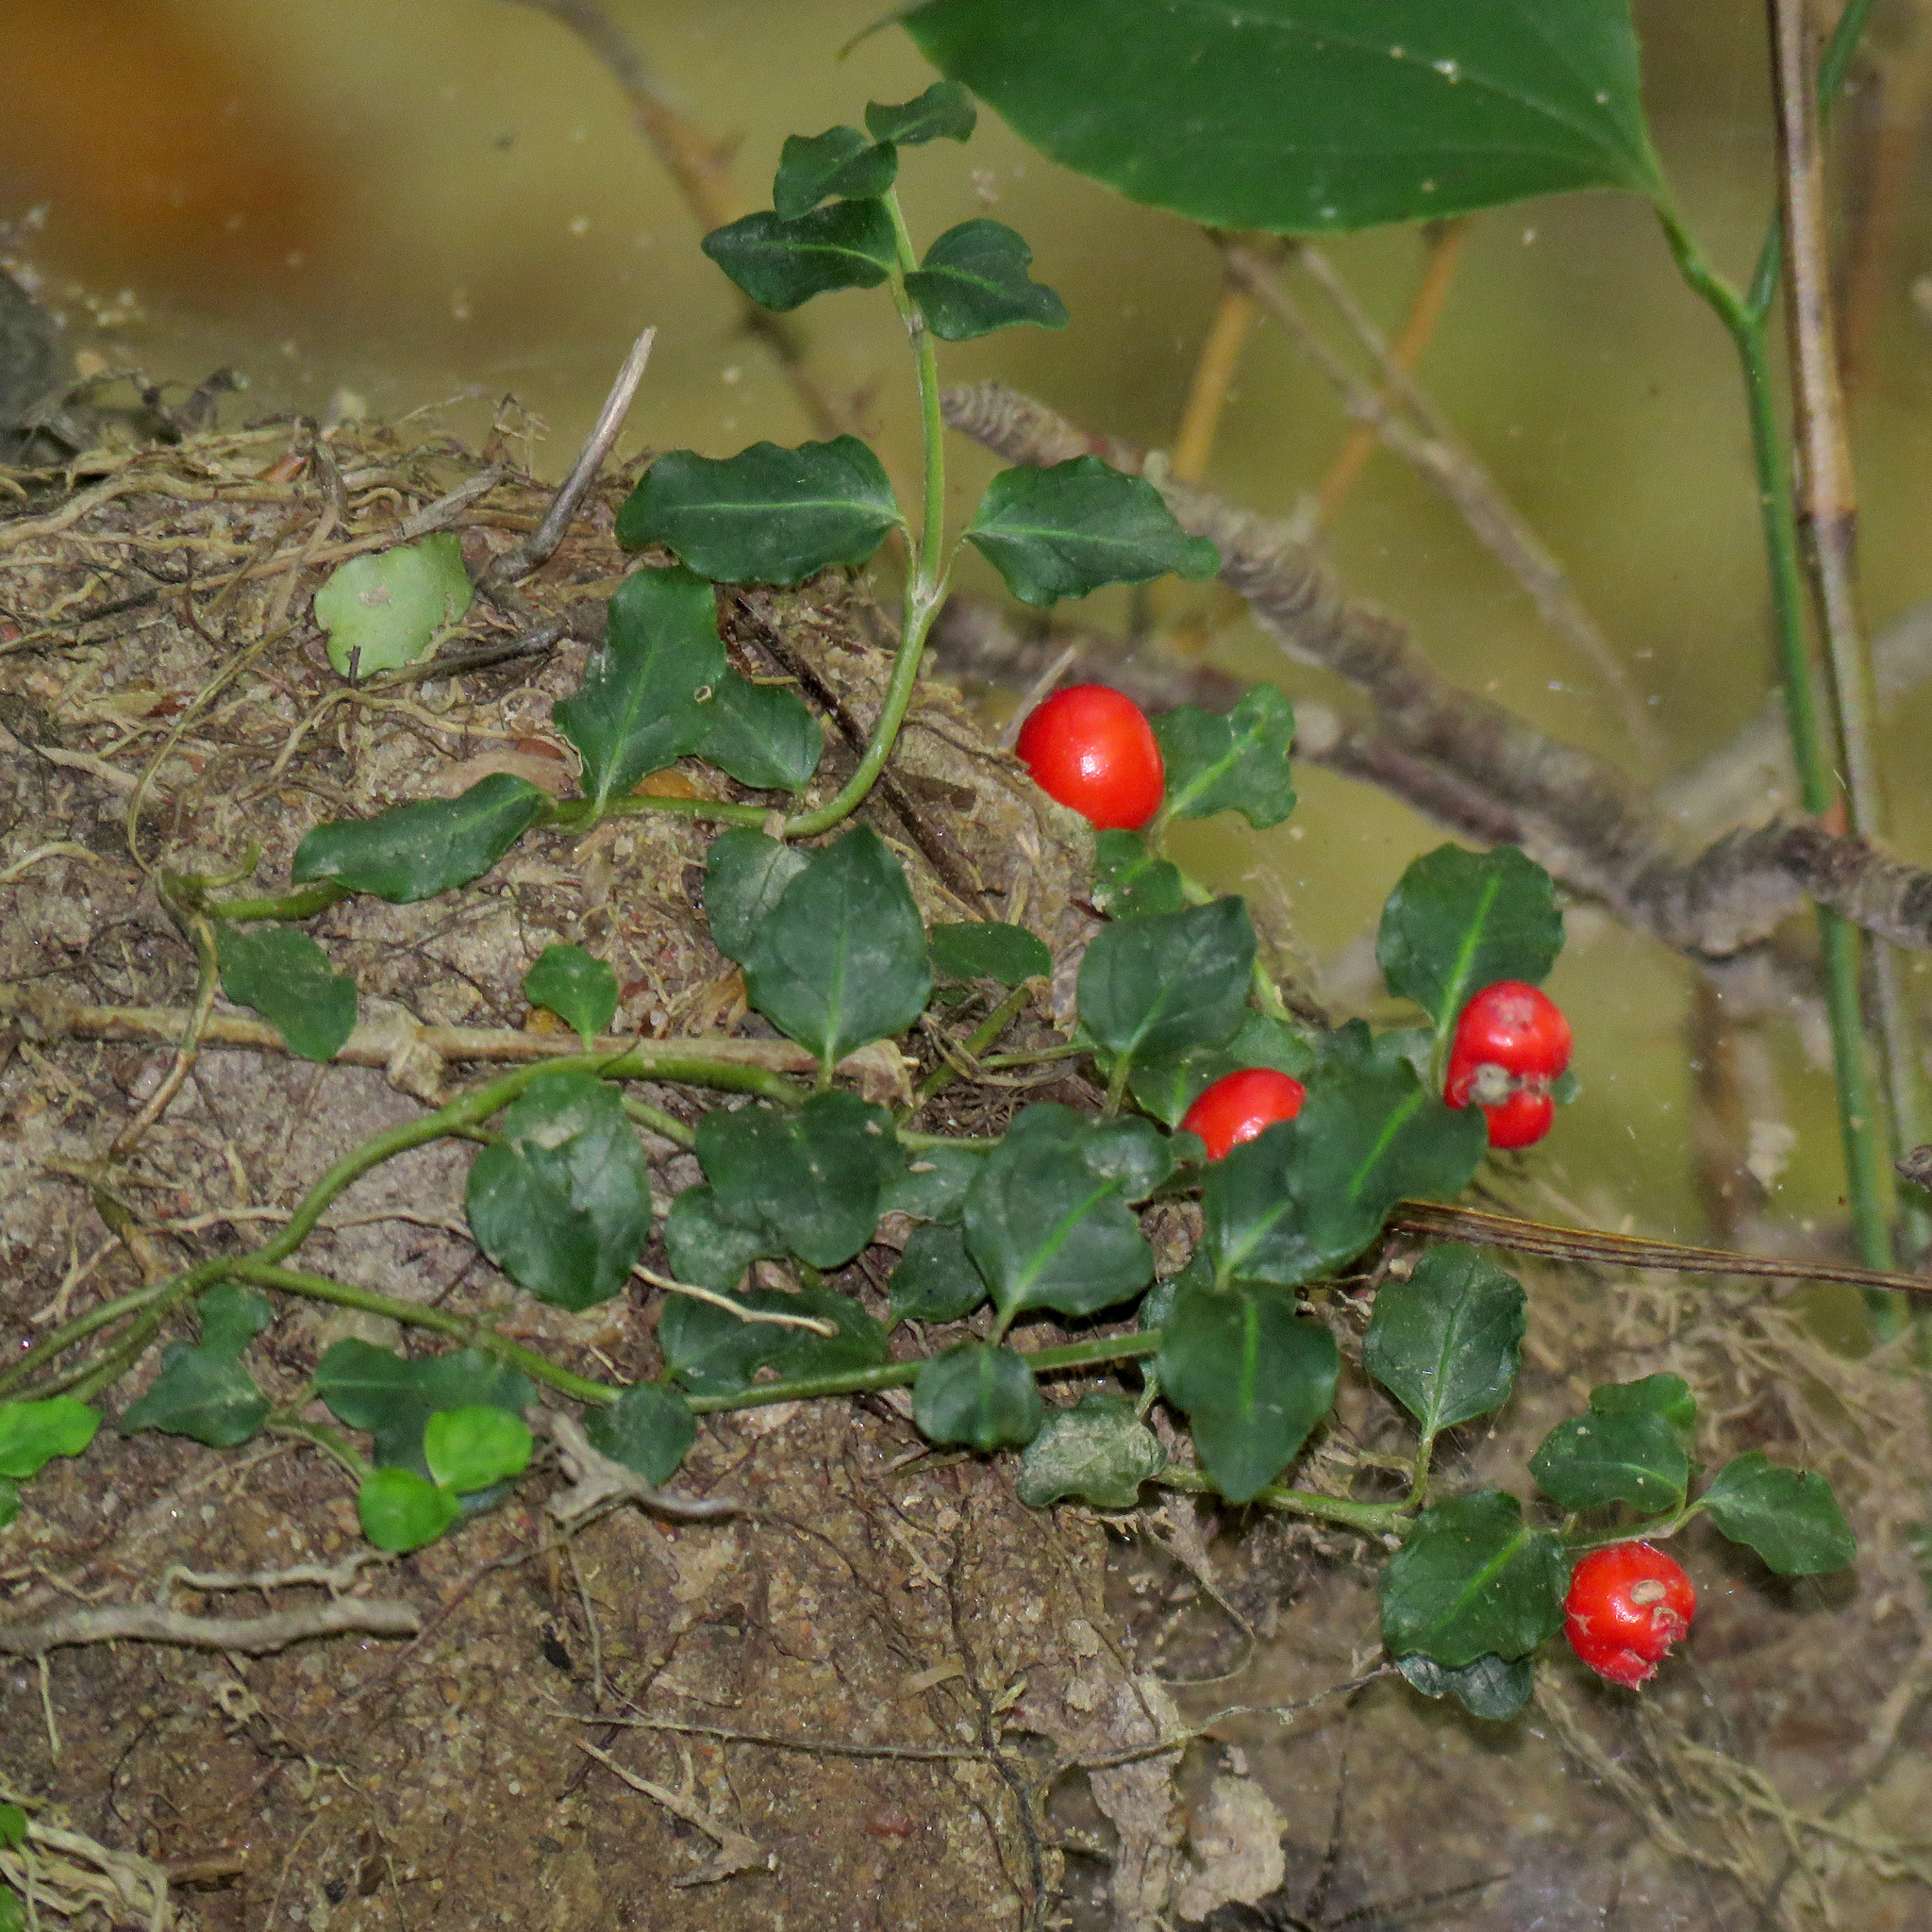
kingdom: Plantae
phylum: Tracheophyta
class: Magnoliopsida
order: Gentianales
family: Rubiaceae
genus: Mitchella
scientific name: Mitchella repens
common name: Partridge-berry
